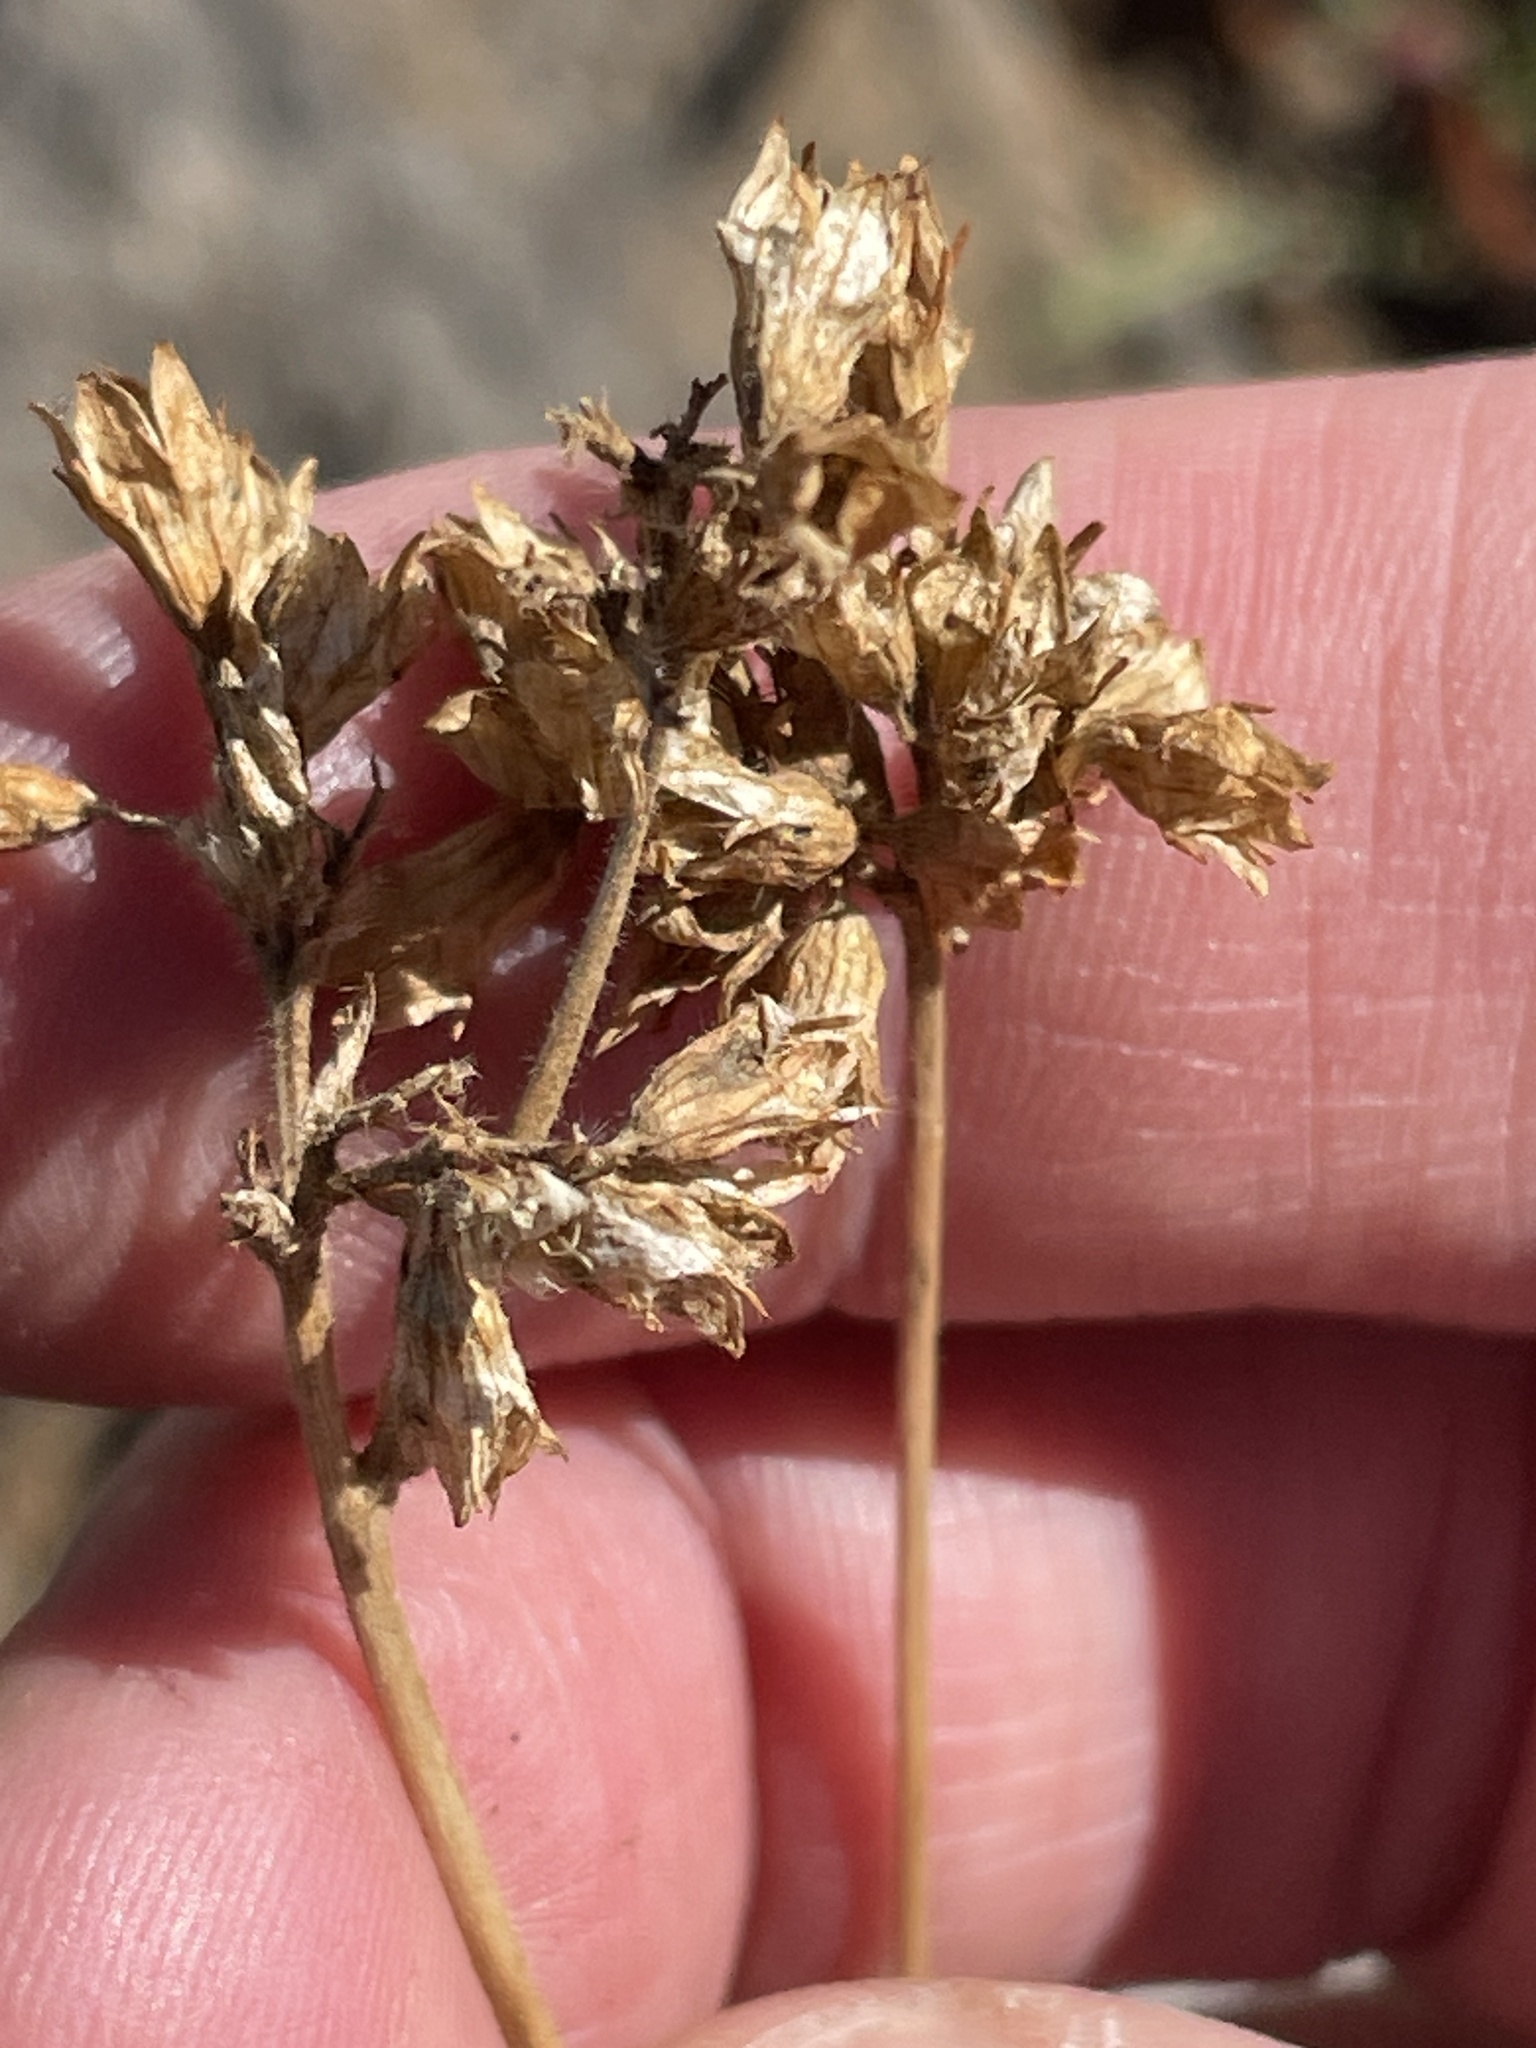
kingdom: Plantae
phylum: Tracheophyta
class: Magnoliopsida
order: Rosales
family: Rosaceae
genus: Potentilla
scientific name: Potentilla gordonii
